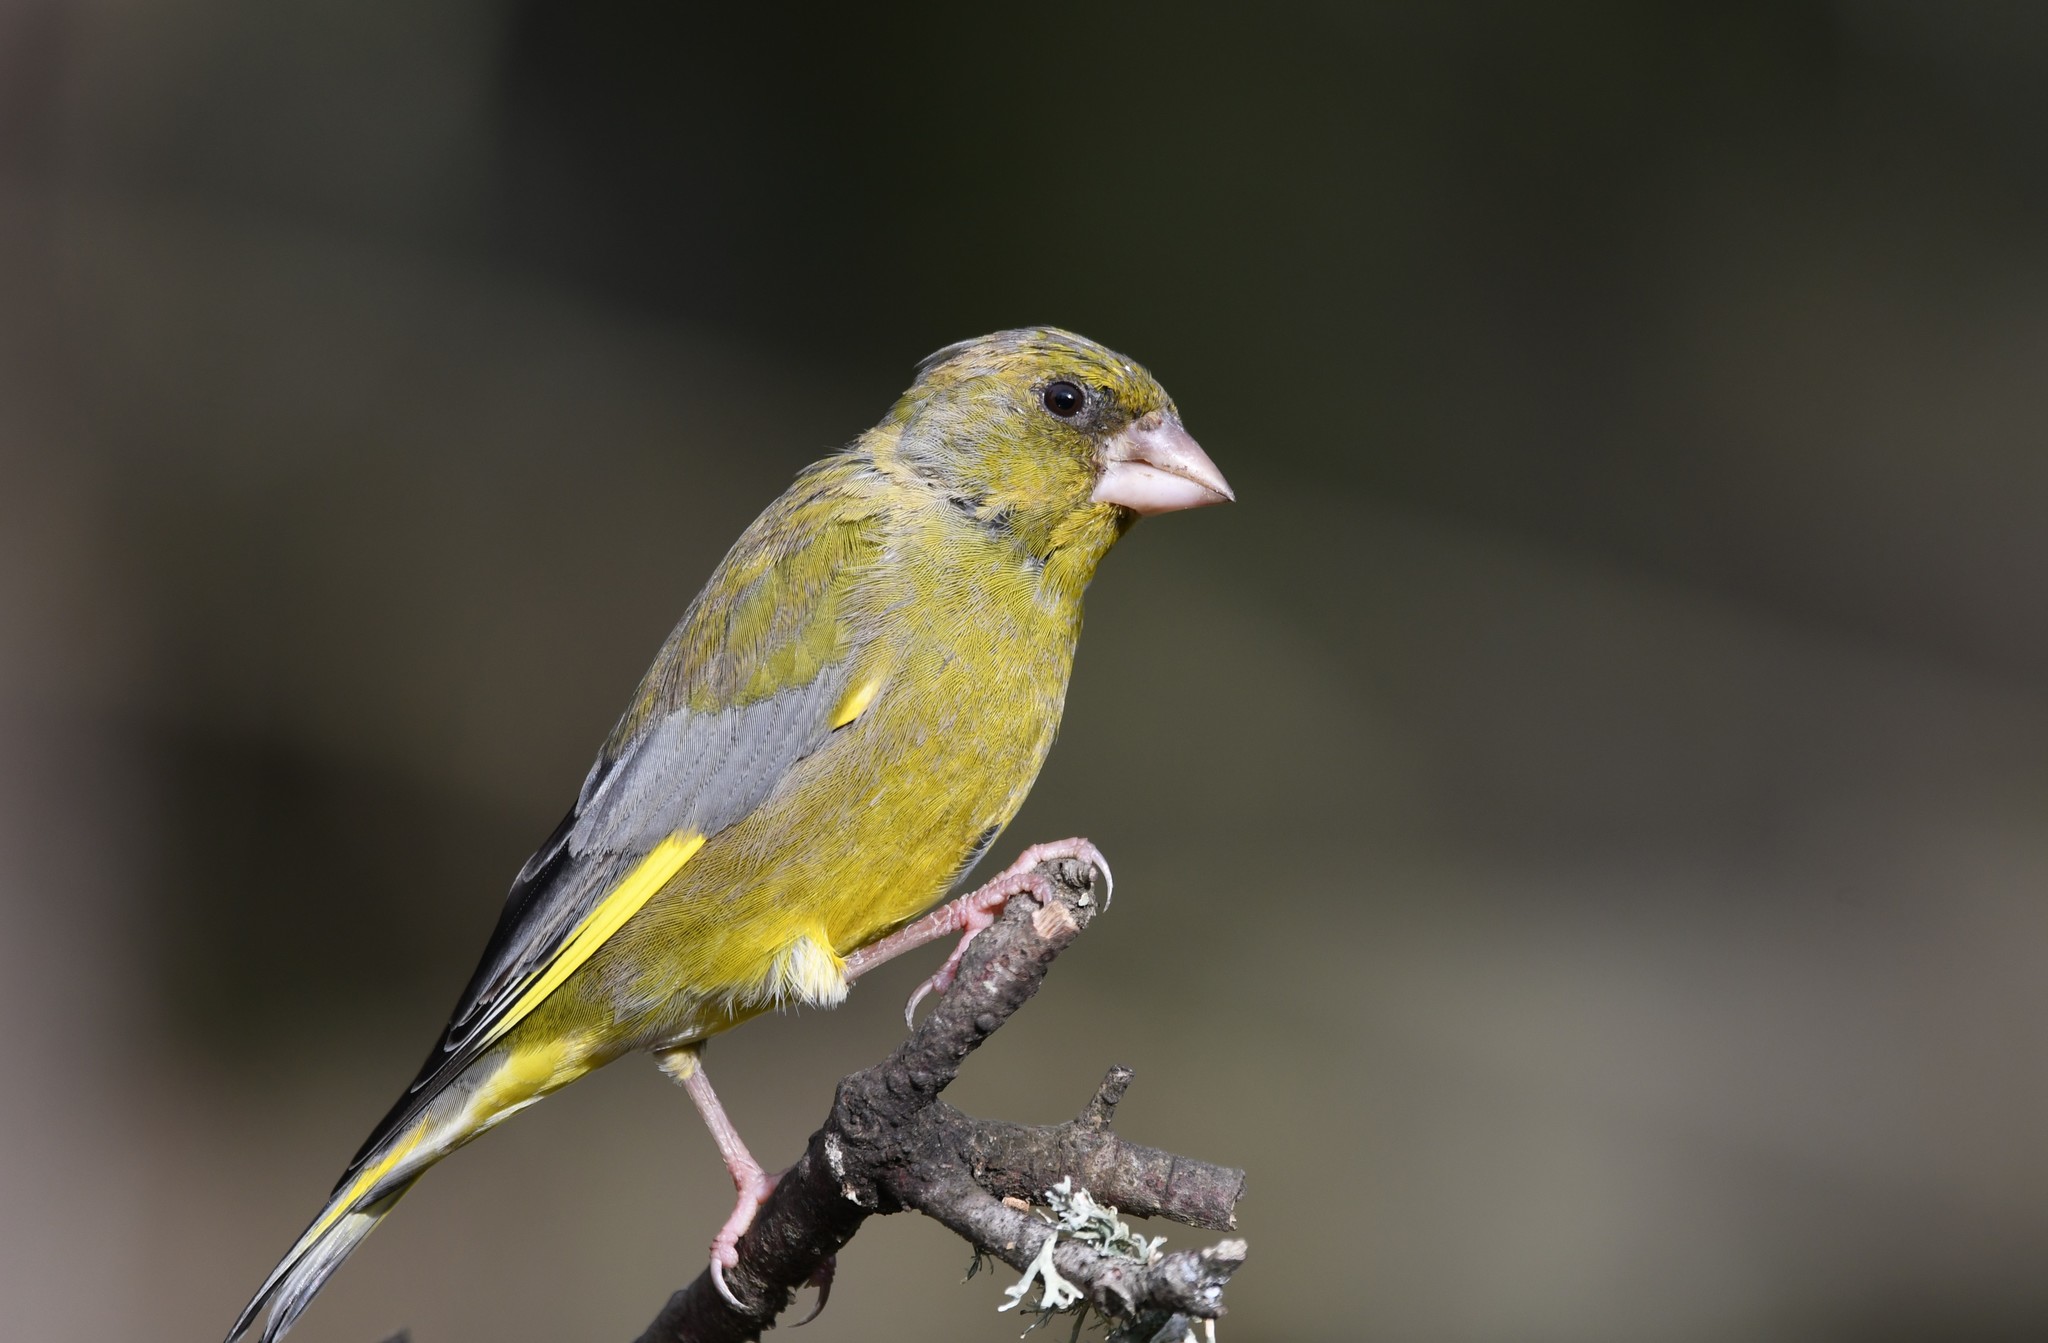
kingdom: Plantae
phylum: Tracheophyta
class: Liliopsida
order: Poales
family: Poaceae
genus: Chloris
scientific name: Chloris chloris
